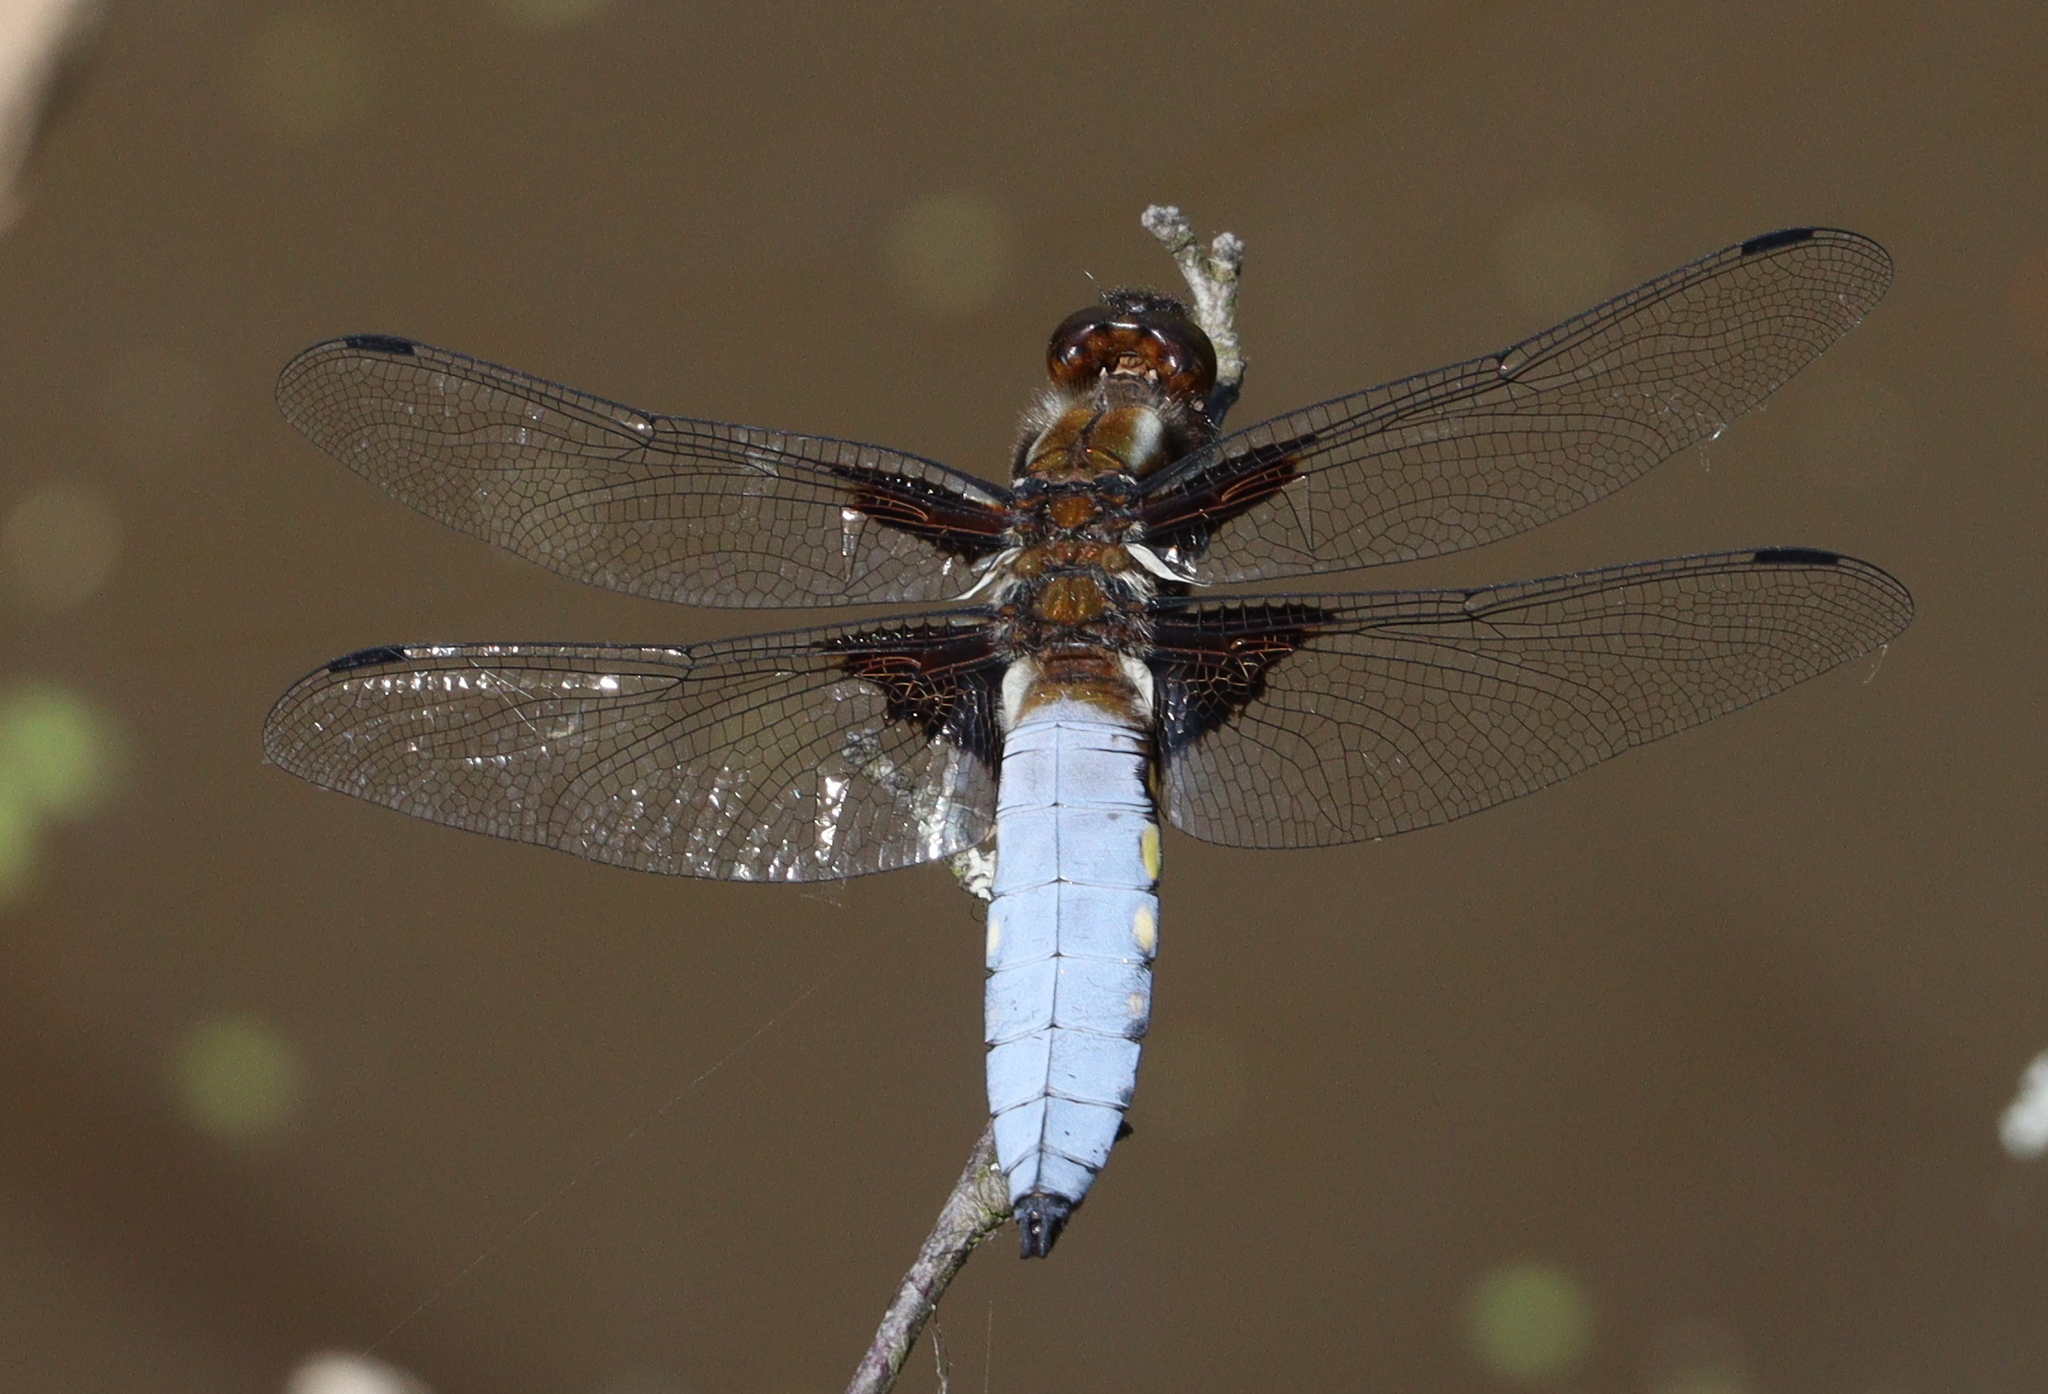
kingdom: Animalia
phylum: Arthropoda
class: Insecta
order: Odonata
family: Libellulidae
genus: Libellula
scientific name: Libellula depressa
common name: Broad-bodied chaser
